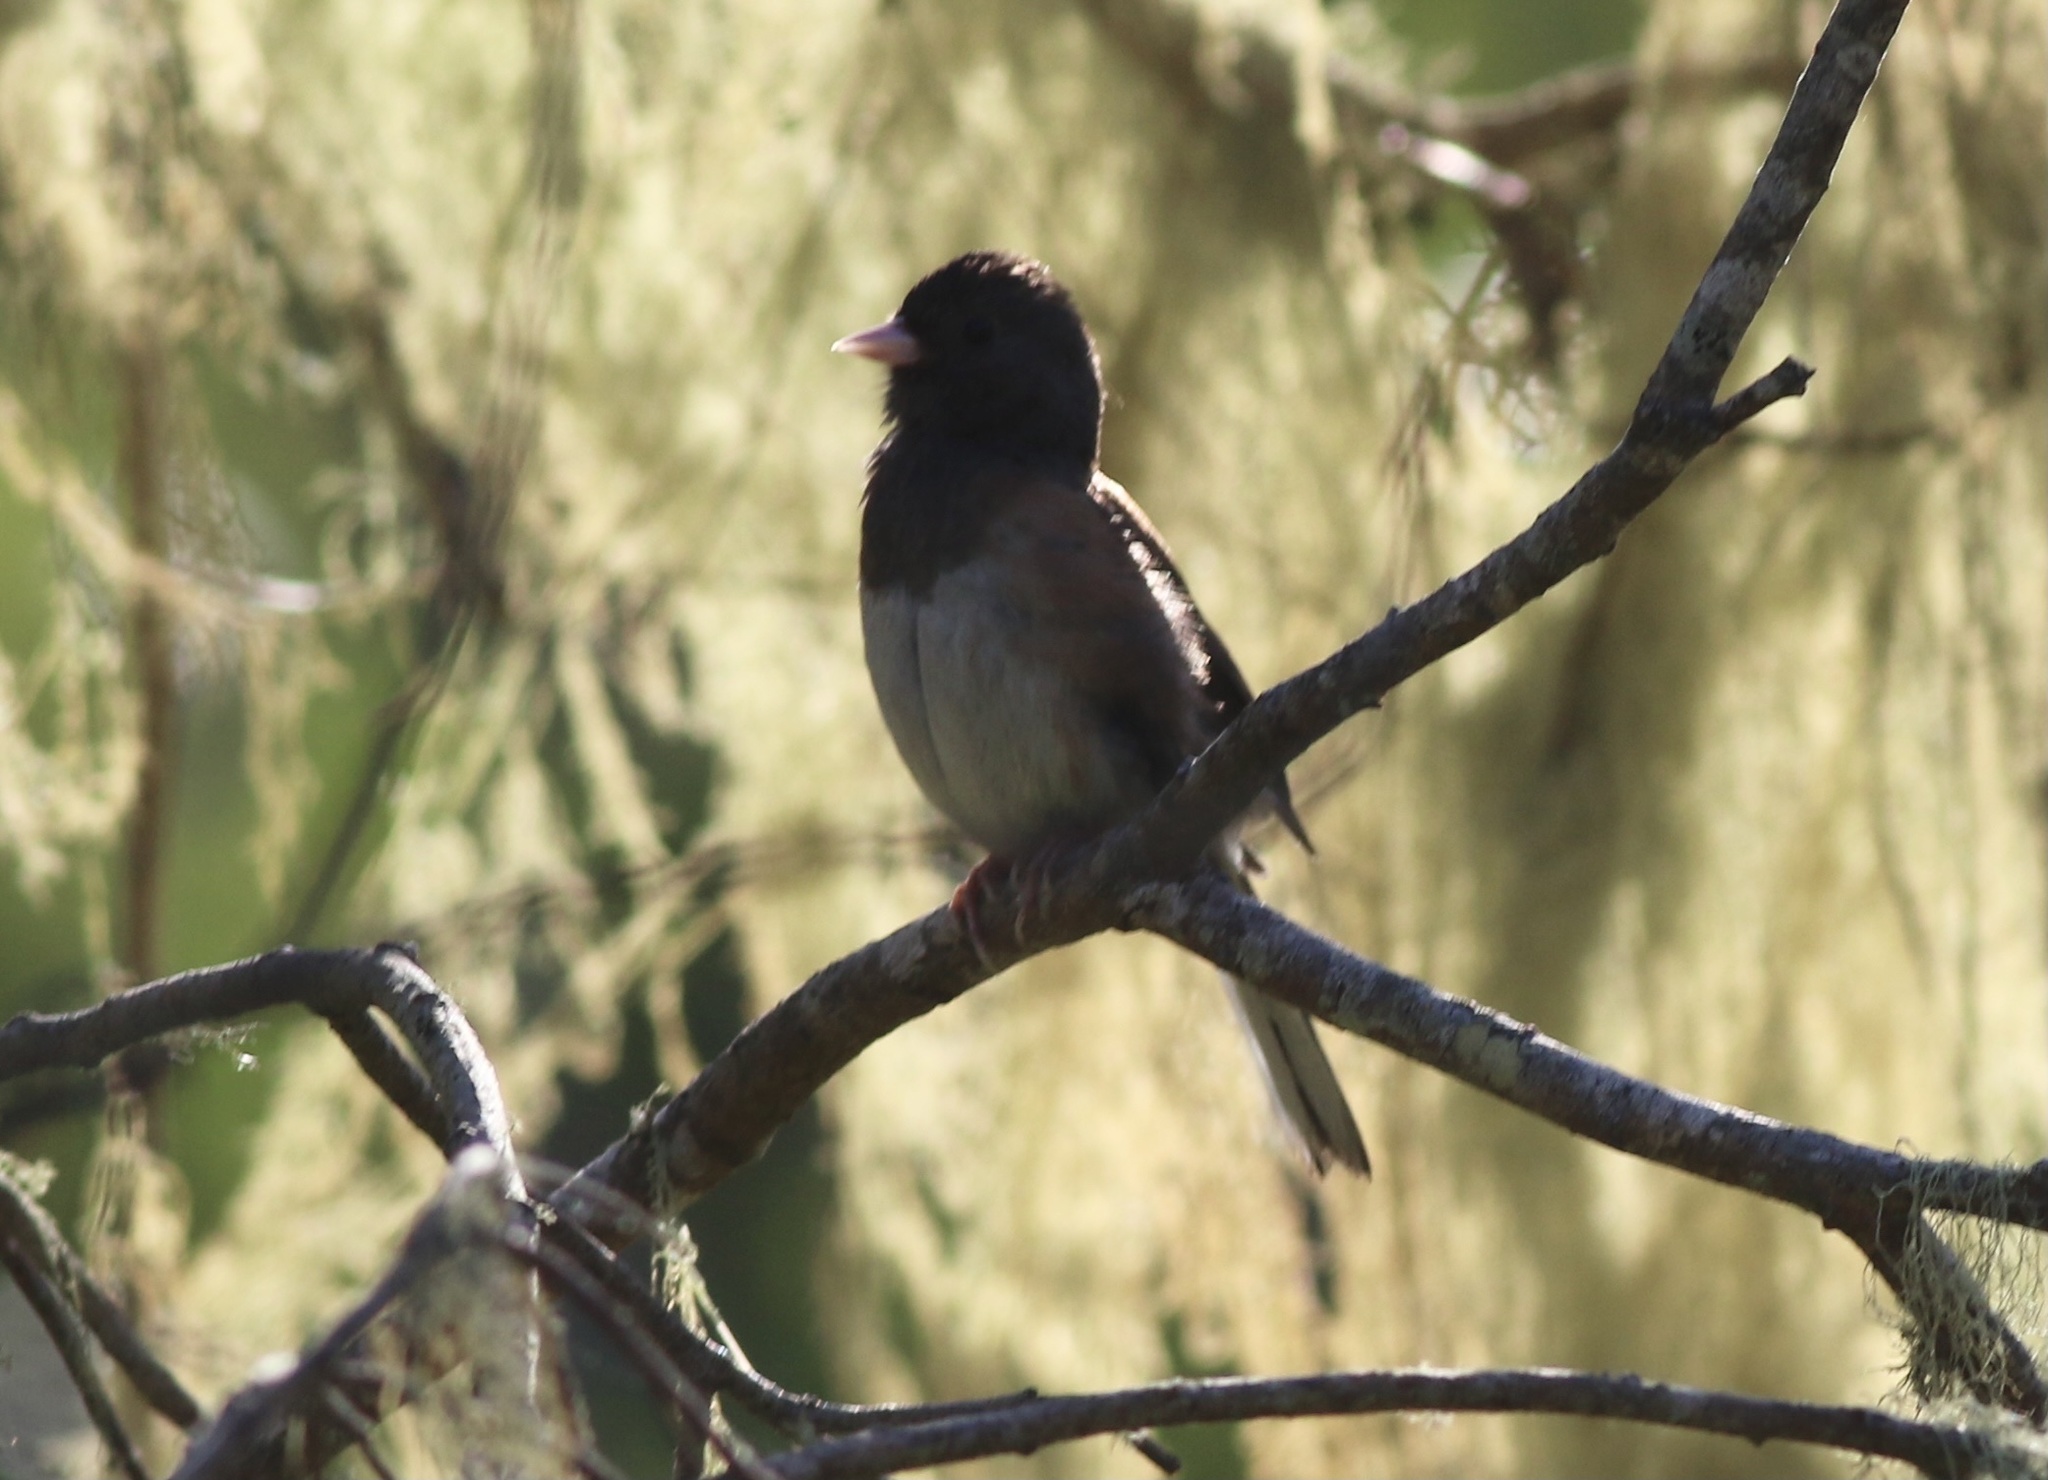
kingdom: Animalia
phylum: Chordata
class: Aves
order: Passeriformes
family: Passerellidae
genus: Junco
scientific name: Junco hyemalis
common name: Dark-eyed junco
